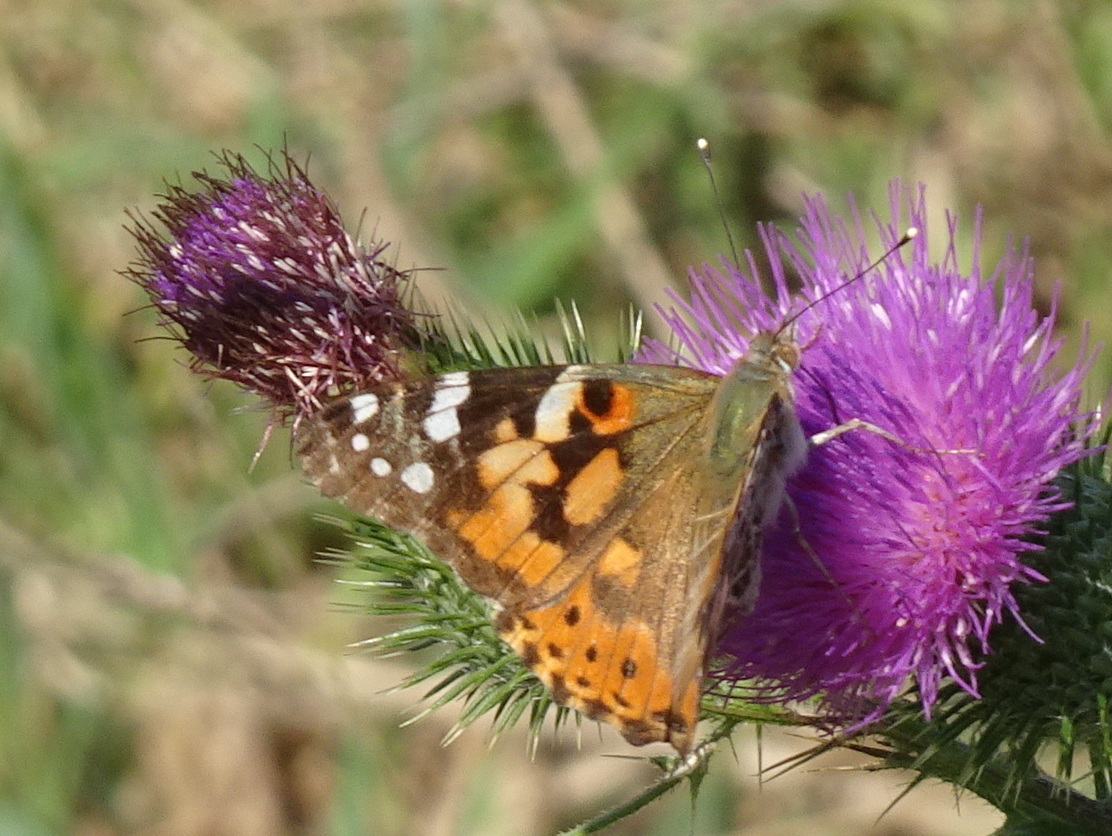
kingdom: Animalia
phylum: Arthropoda
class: Insecta
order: Lepidoptera
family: Nymphalidae
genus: Vanessa
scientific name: Vanessa cardui
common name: Painted lady
